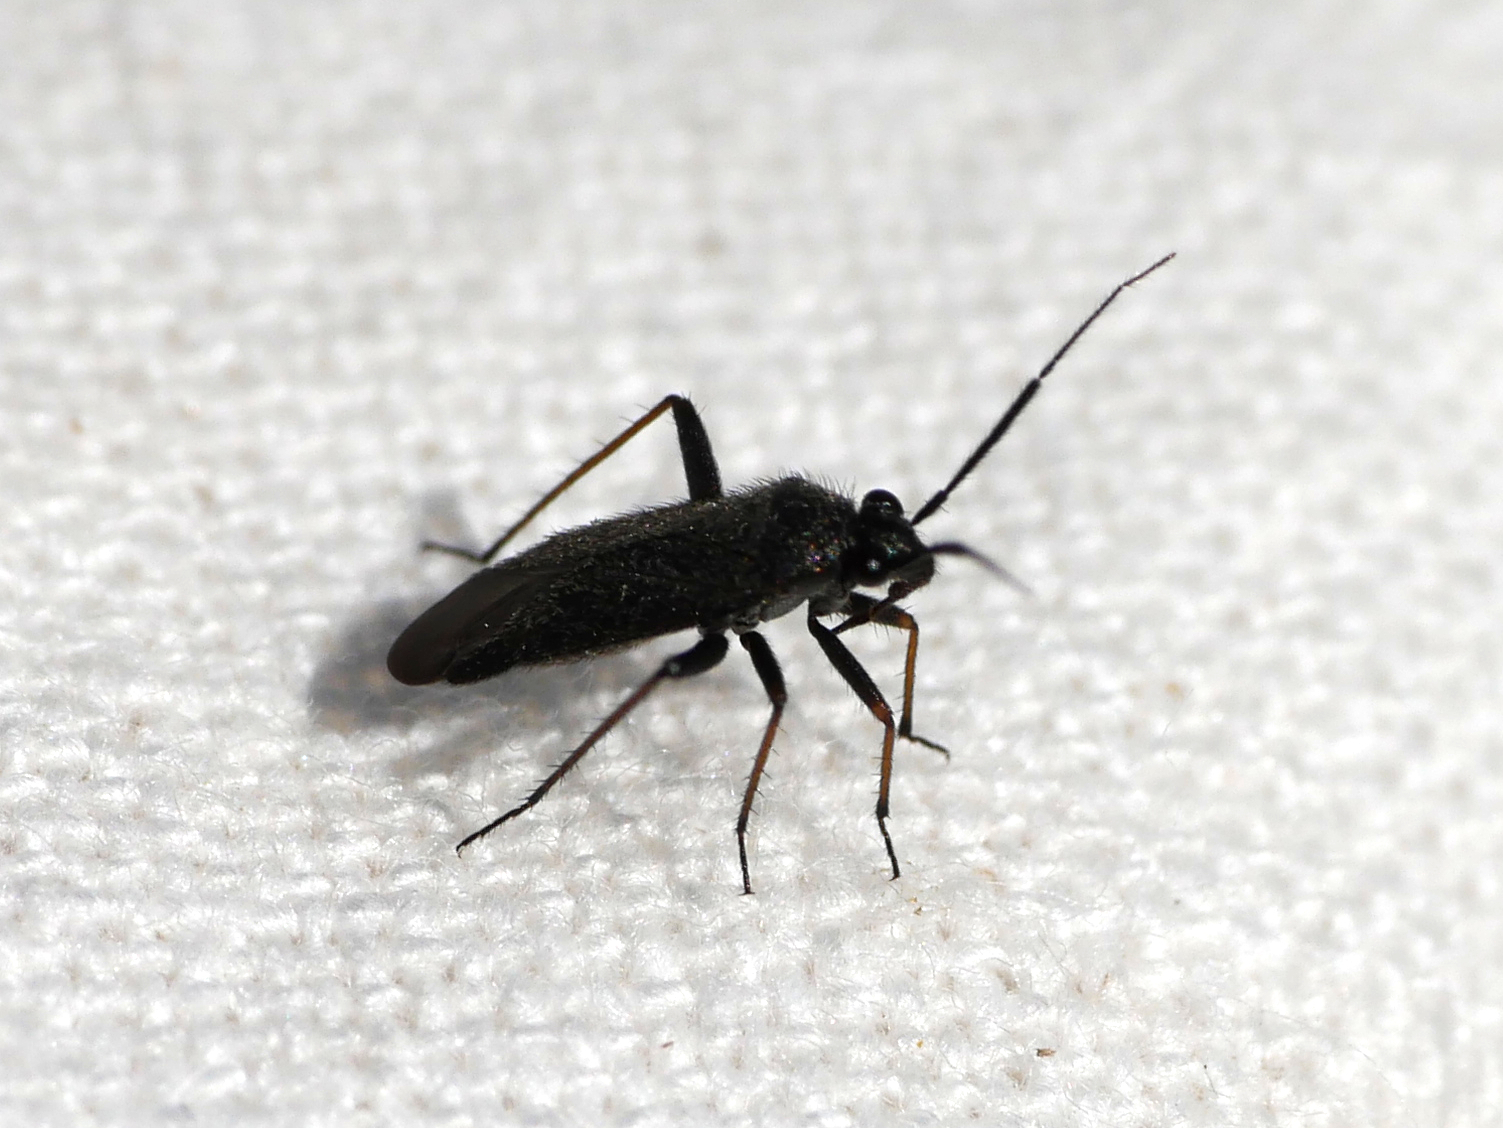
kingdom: Animalia
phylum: Arthropoda
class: Insecta
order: Hemiptera
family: Miridae
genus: Orthocephalus
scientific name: Orthocephalus saltator
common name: Plant bug
